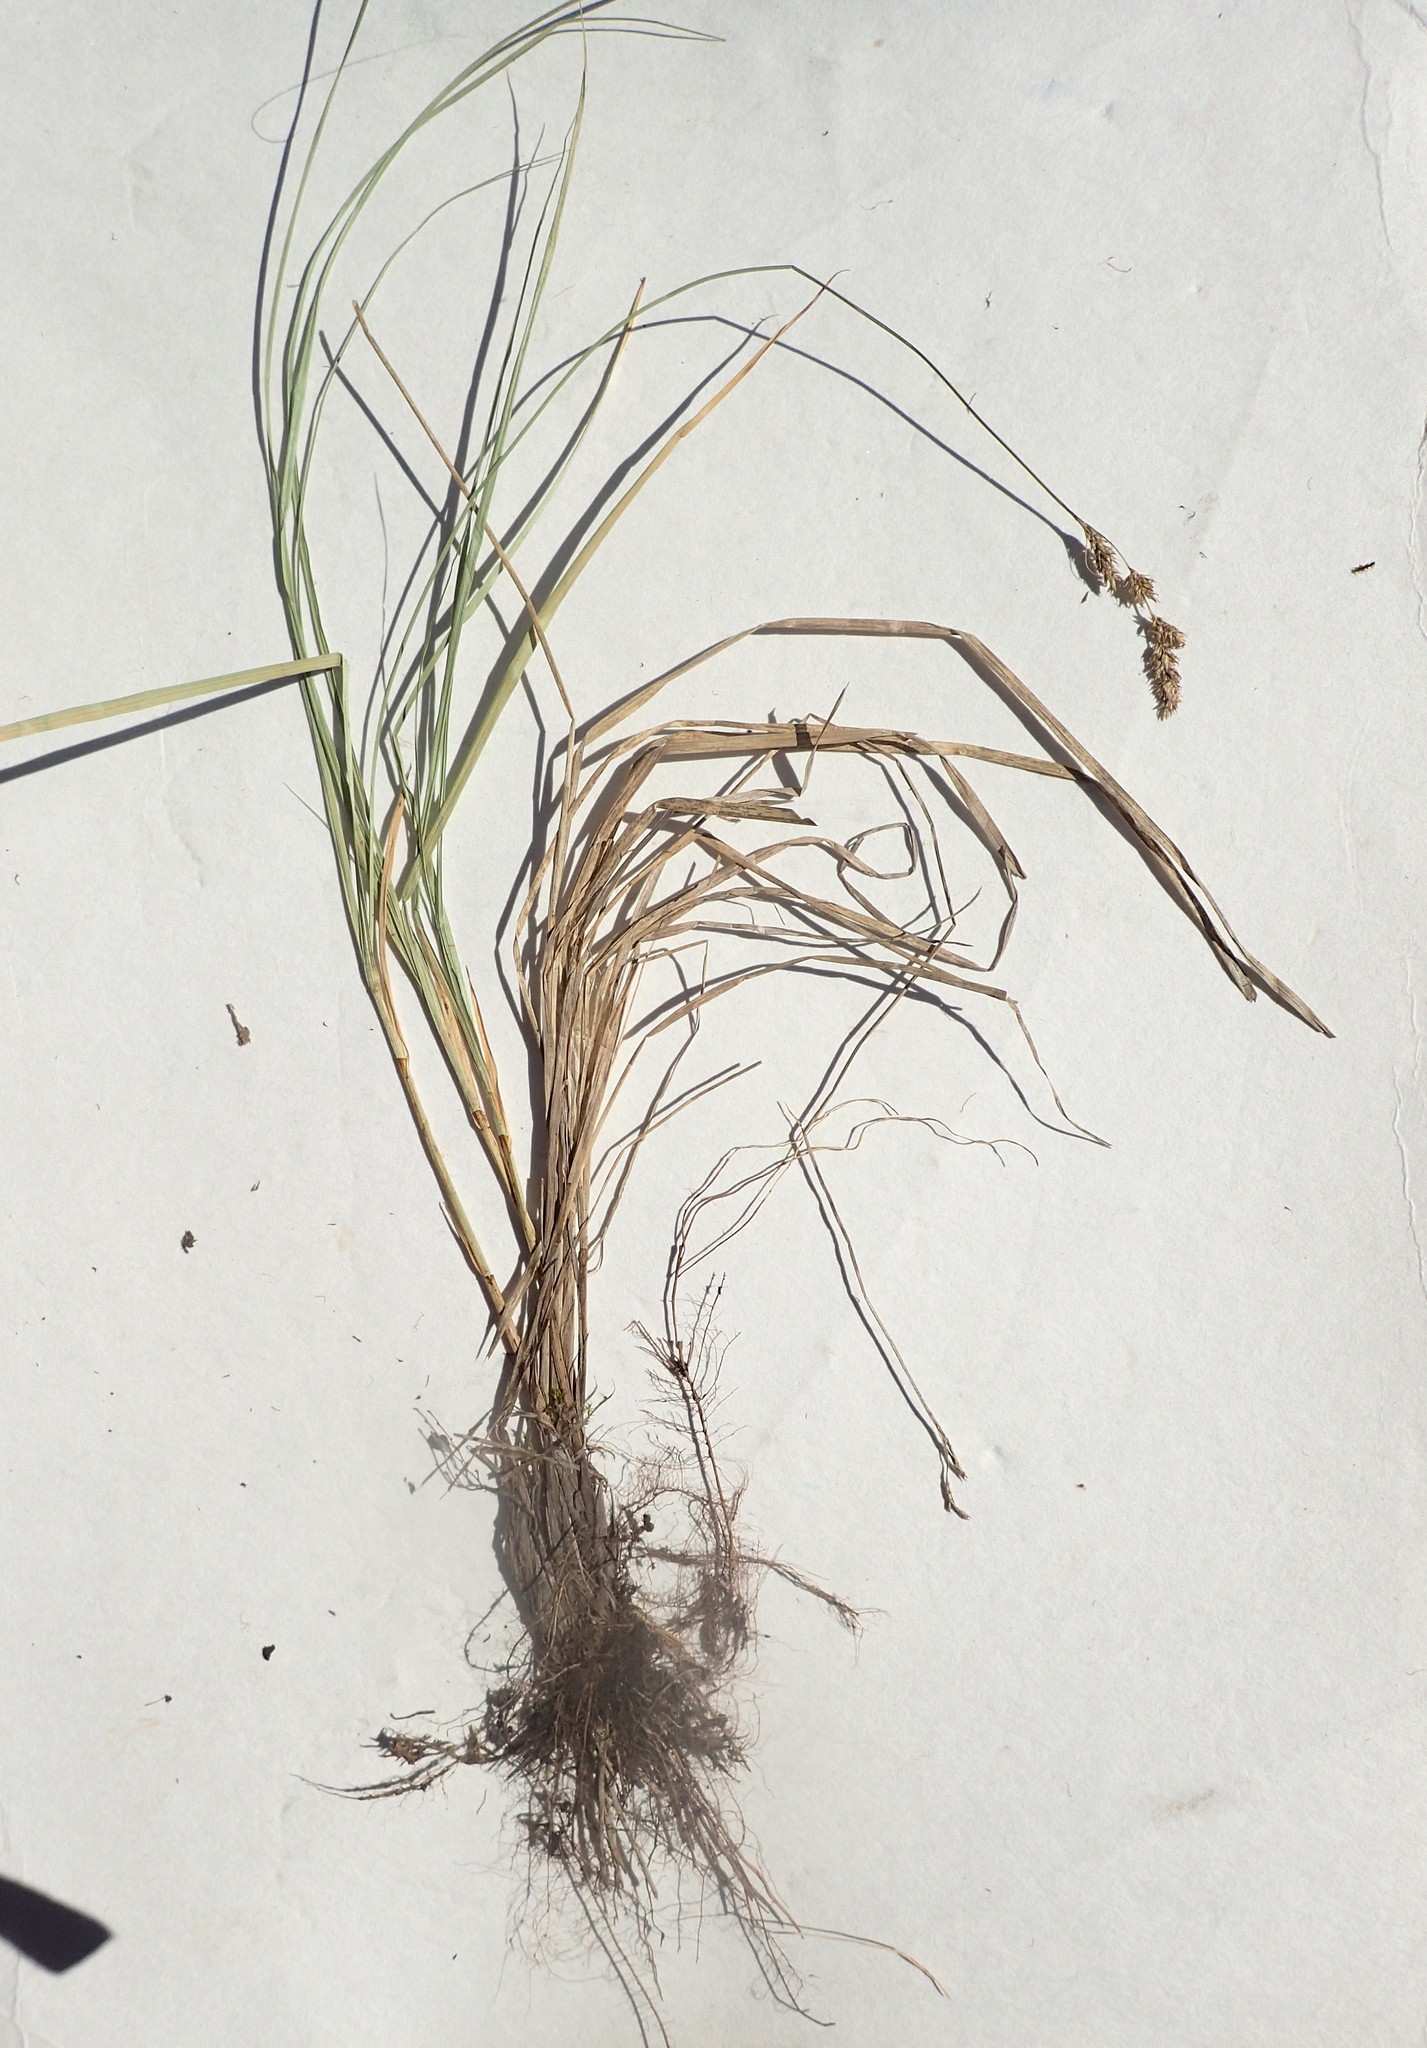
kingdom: Plantae
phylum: Tracheophyta
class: Liliopsida
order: Poales
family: Cyperaceae
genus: Carex
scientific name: Carex prairea
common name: Prairie sedge
